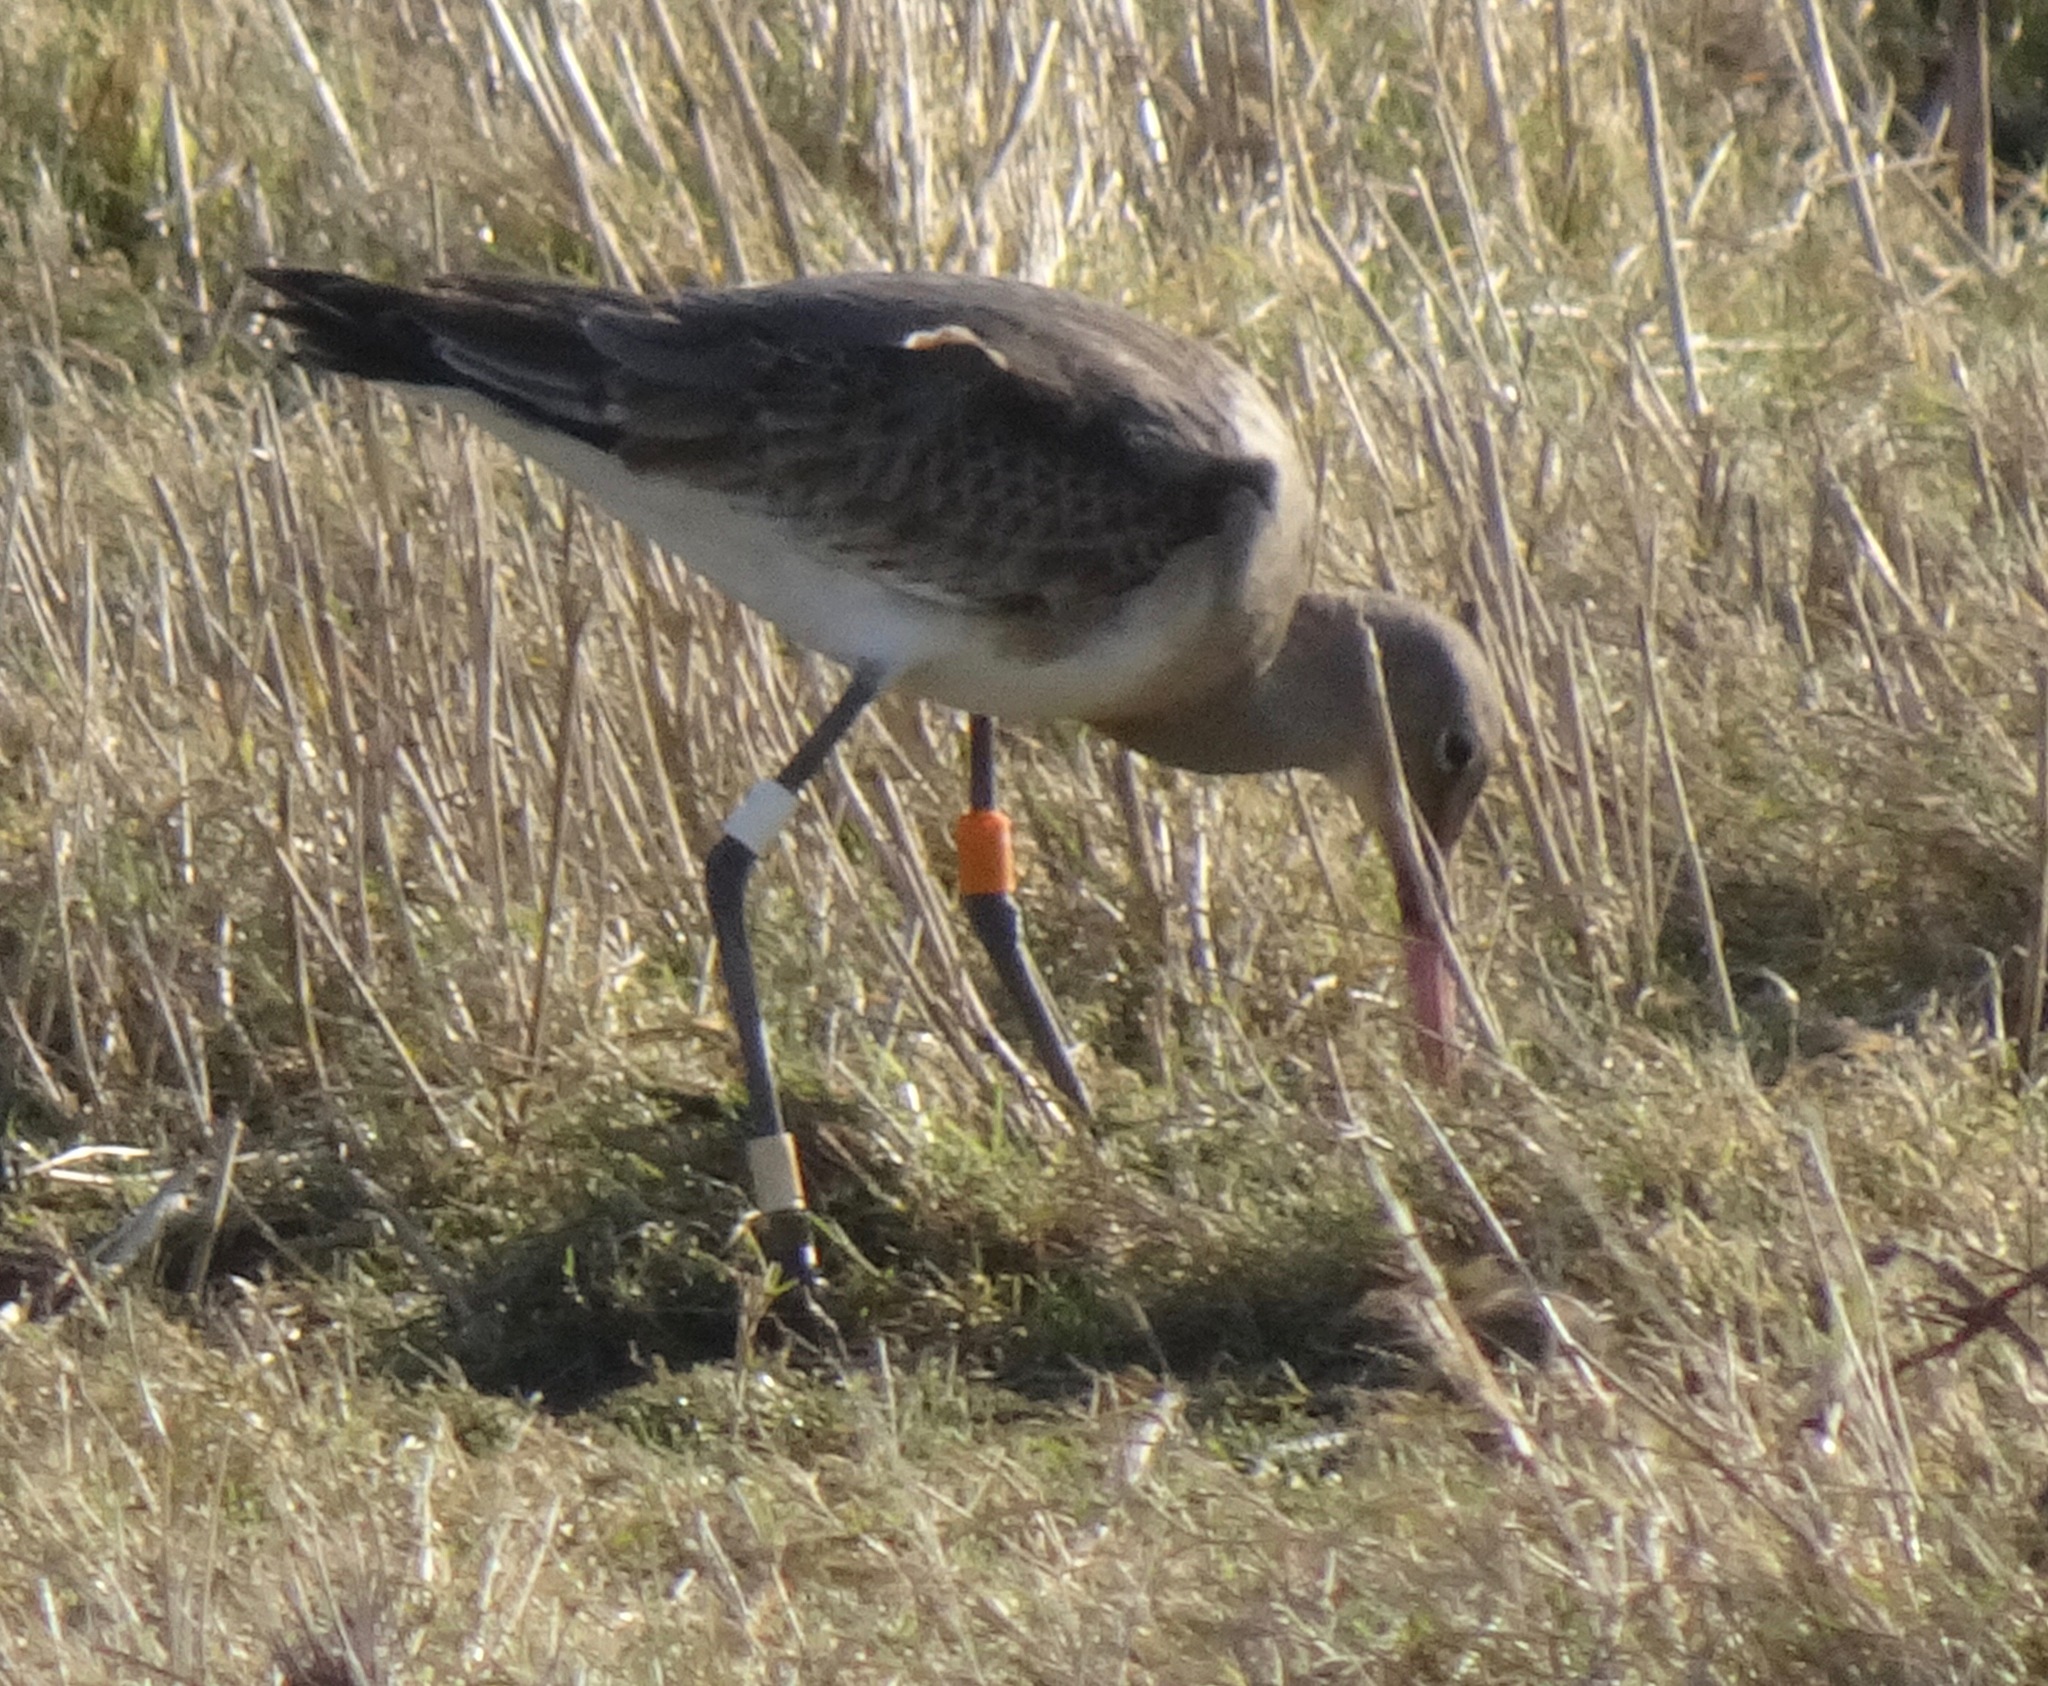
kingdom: Animalia
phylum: Chordata
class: Aves
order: Charadriiformes
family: Scolopacidae
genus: Limosa
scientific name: Limosa limosa
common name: Black-tailed godwit
